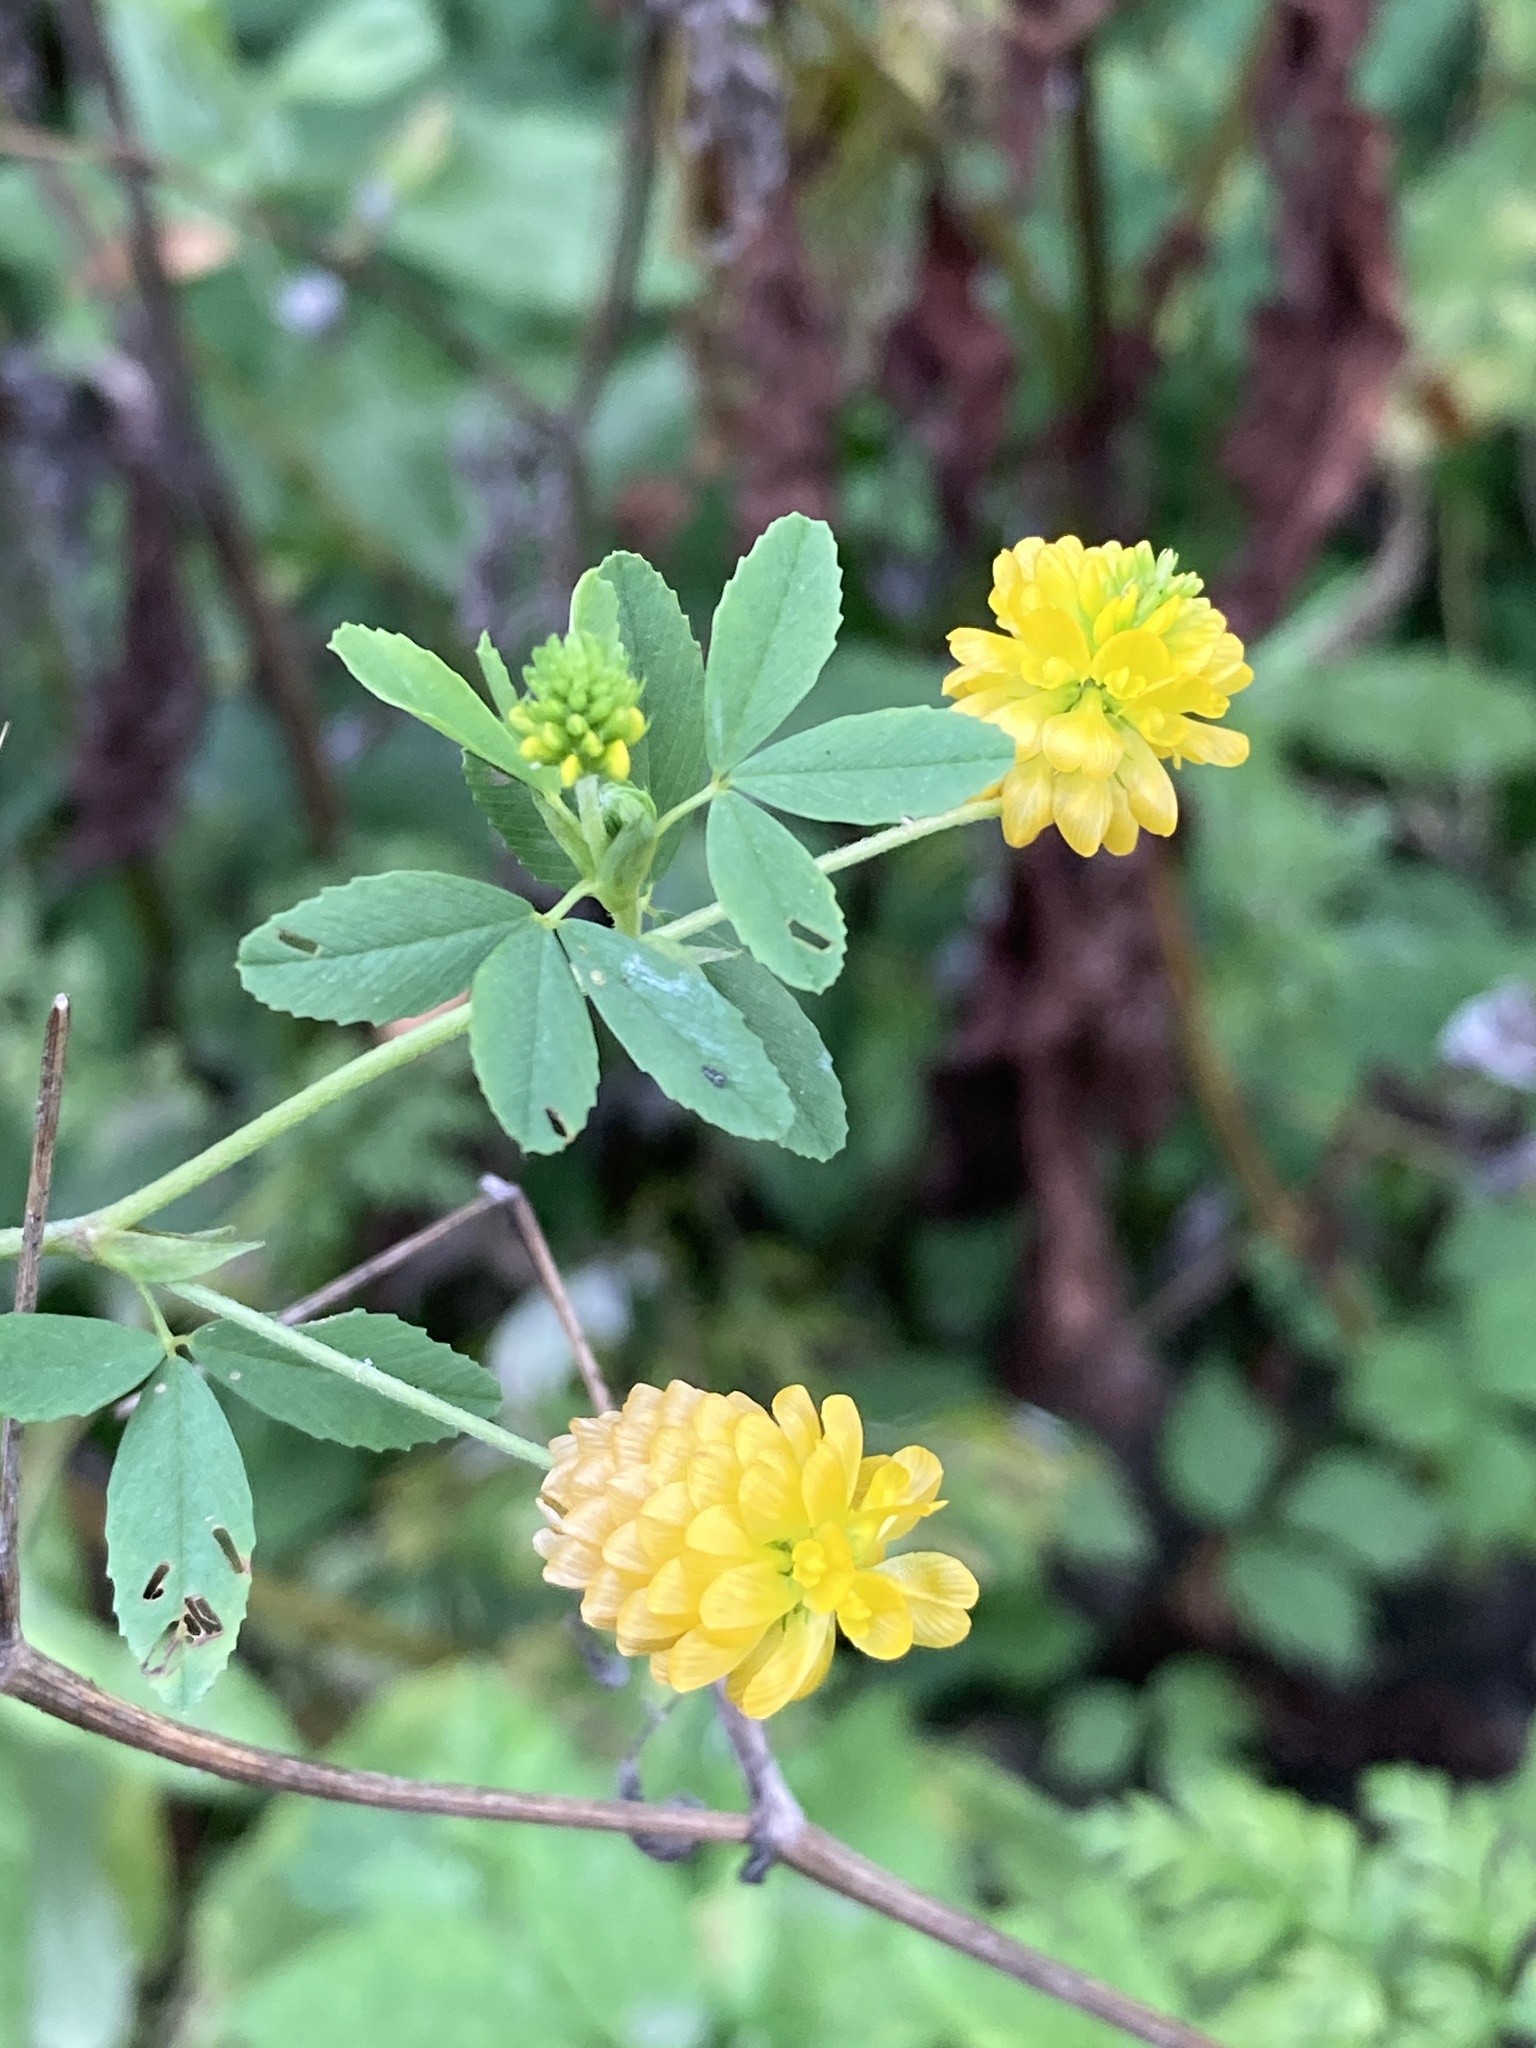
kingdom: Plantae
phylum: Tracheophyta
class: Magnoliopsida
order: Fabales
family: Fabaceae
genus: Trifolium
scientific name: Trifolium aureum
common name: Golden clover
